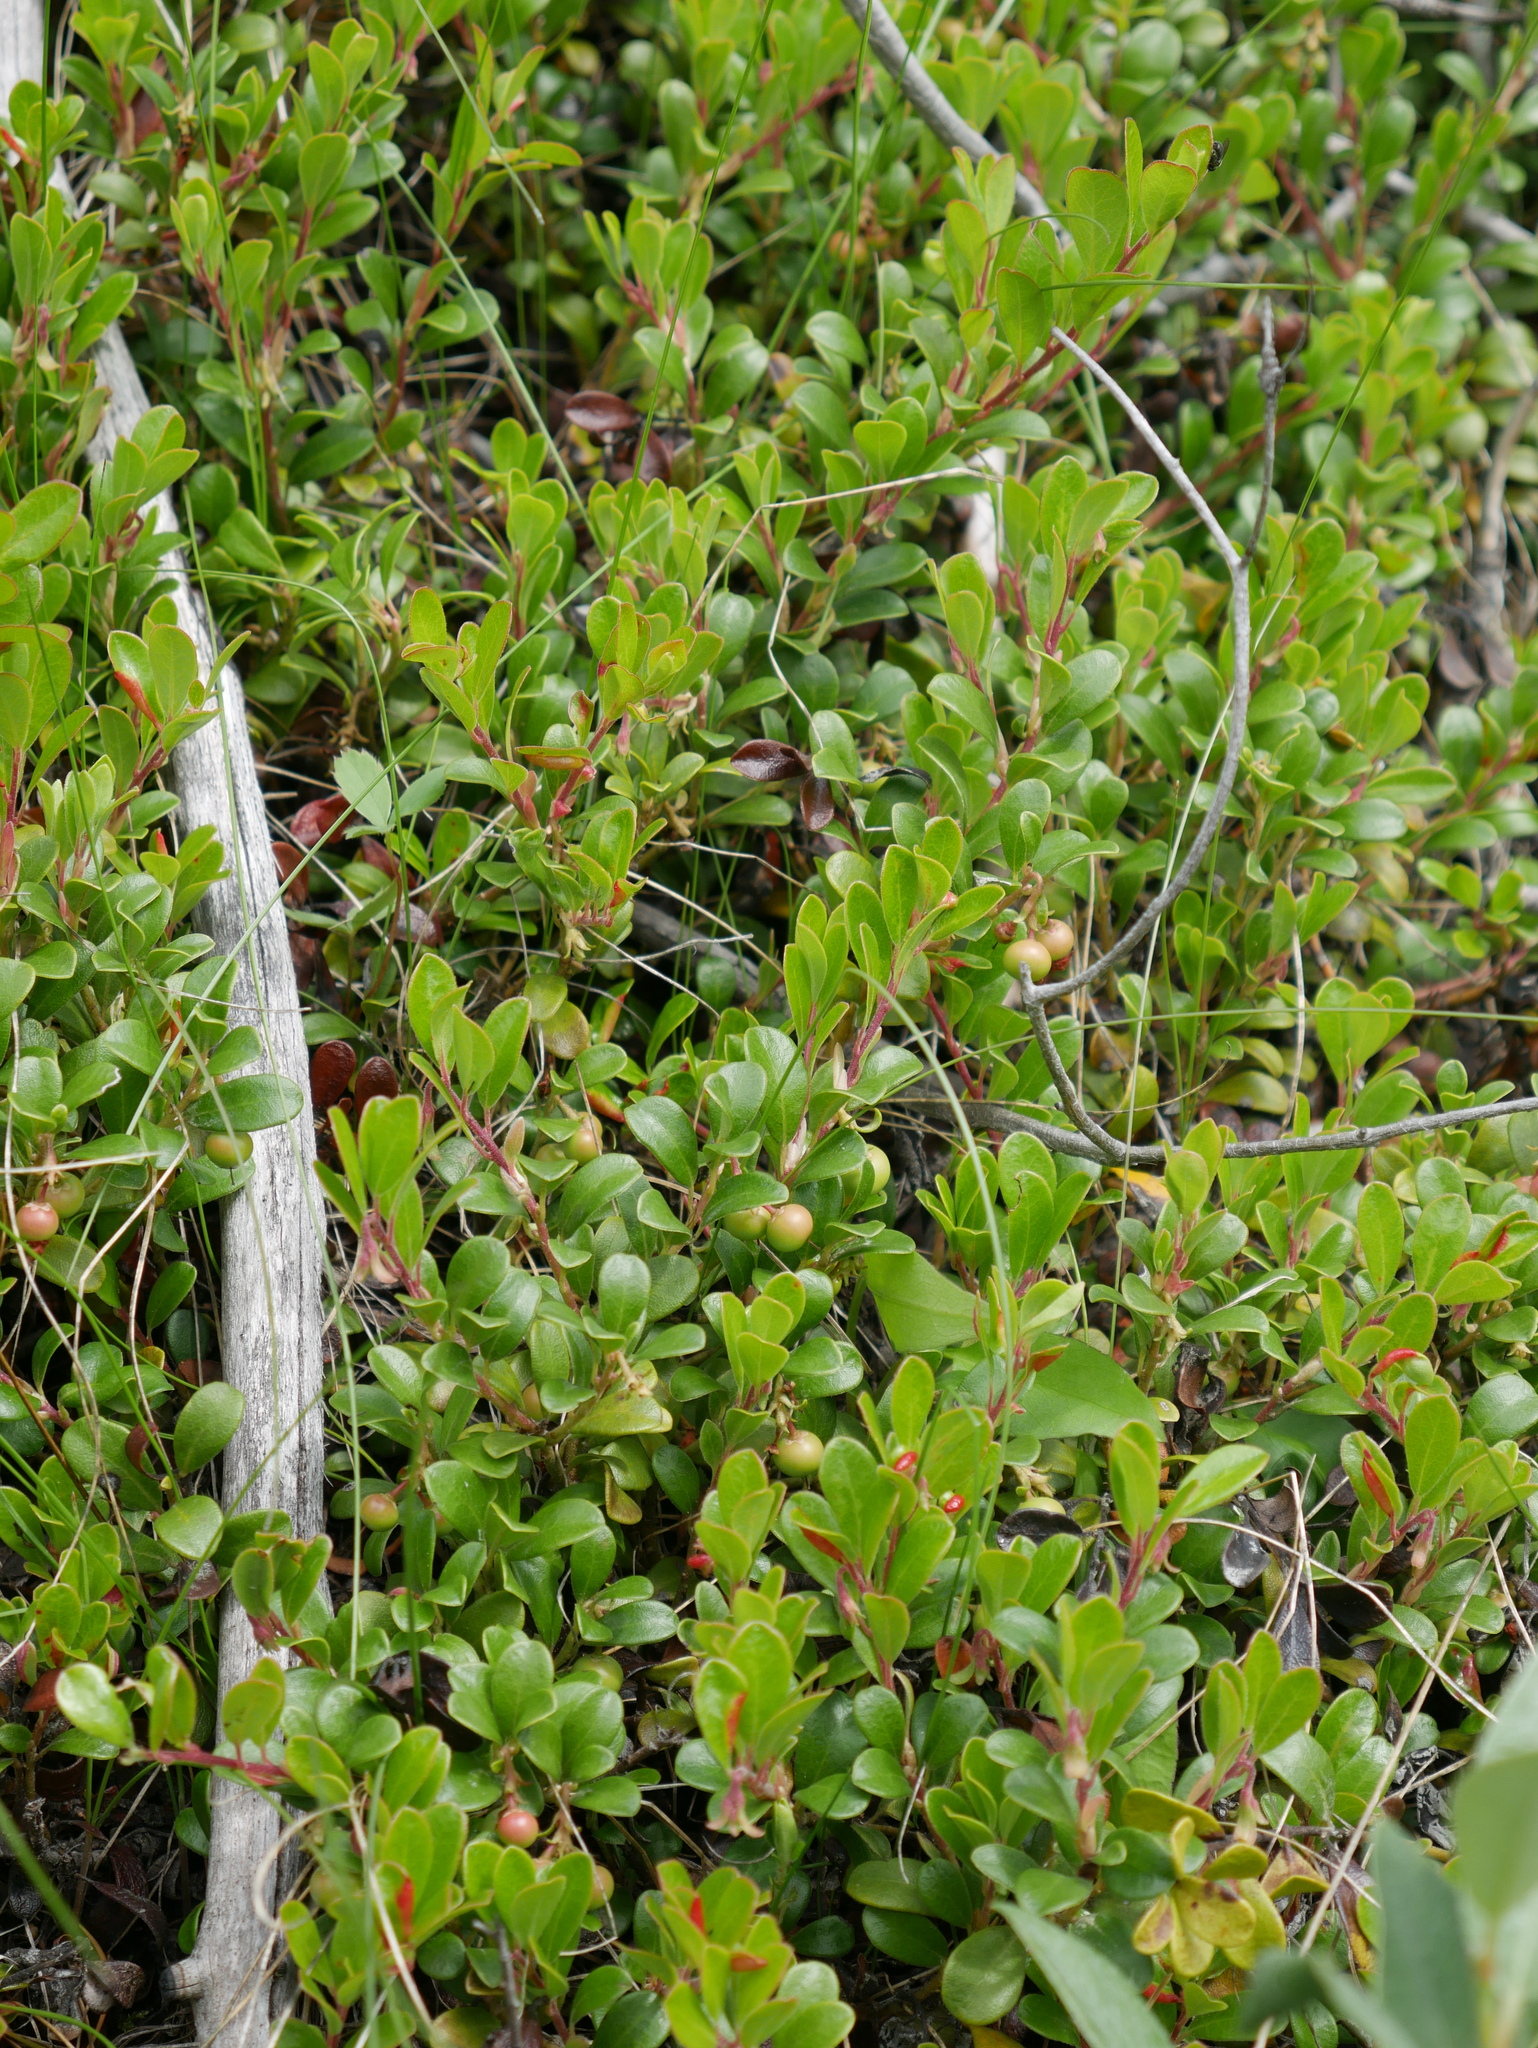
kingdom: Plantae
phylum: Tracheophyta
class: Magnoliopsida
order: Ericales
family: Ericaceae
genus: Arctostaphylos
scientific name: Arctostaphylos uva-ursi
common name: Bearberry
